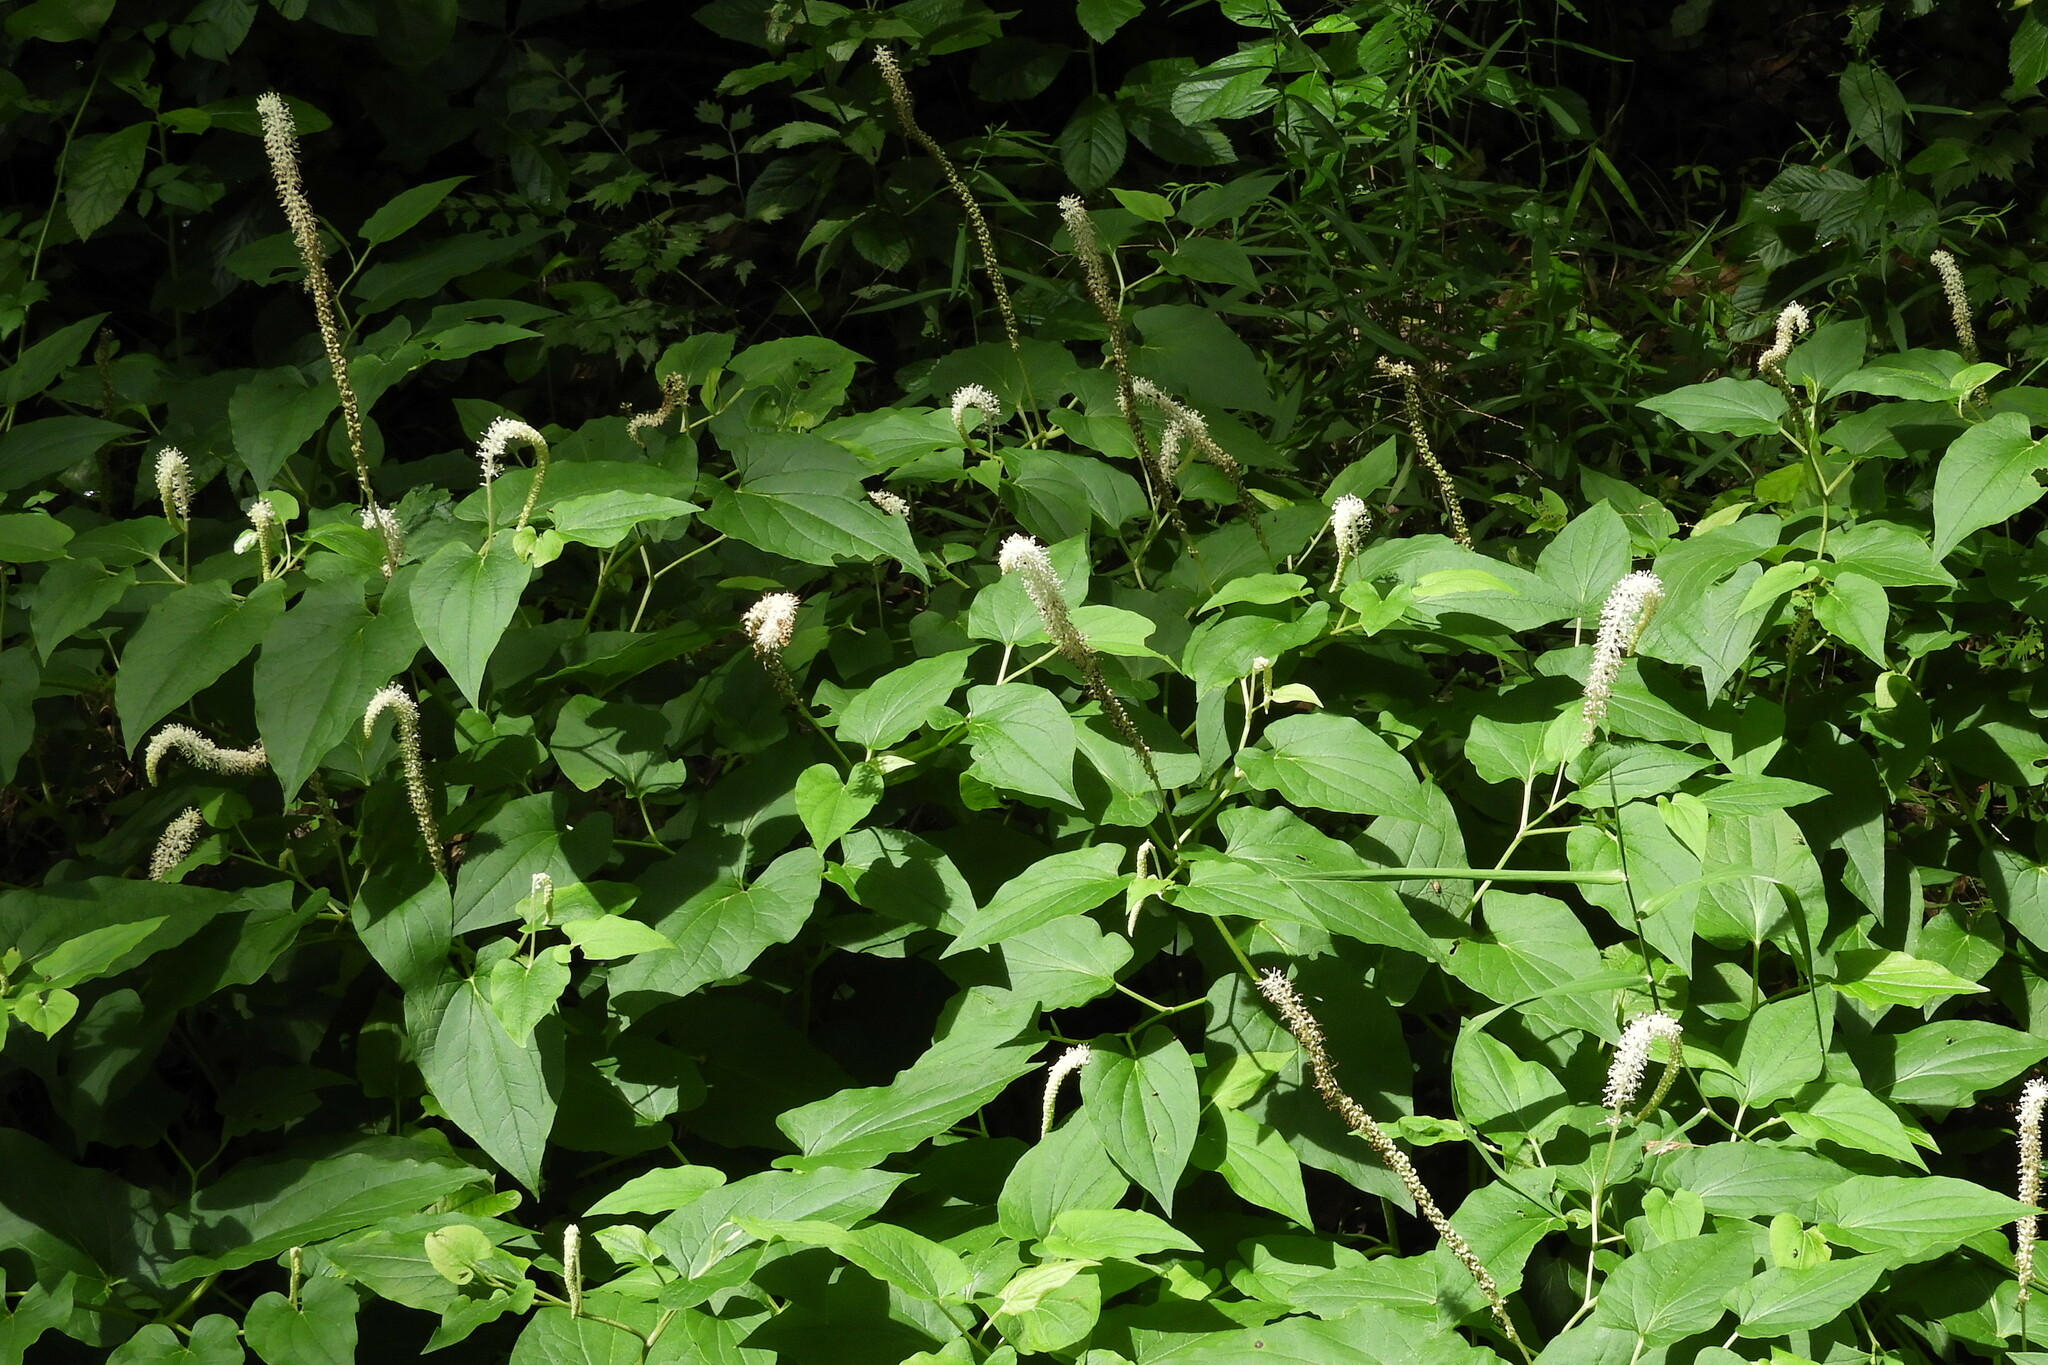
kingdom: Plantae
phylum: Tracheophyta
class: Magnoliopsida
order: Piperales
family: Saururaceae
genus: Saururus
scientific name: Saururus cernuus
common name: Lizard's-tail
